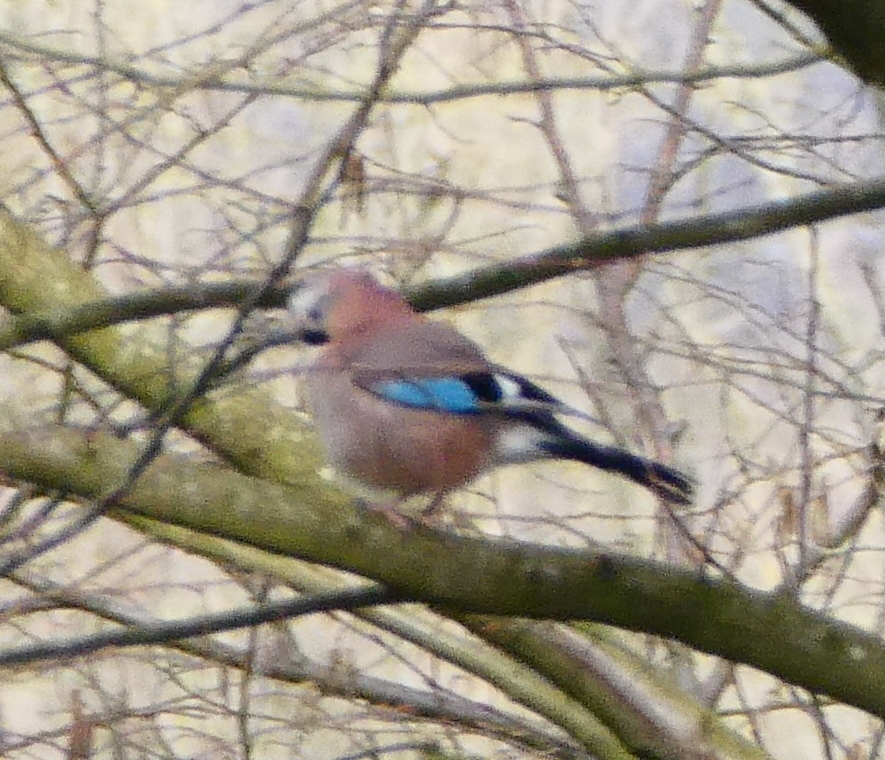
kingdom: Animalia
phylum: Chordata
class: Aves
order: Passeriformes
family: Corvidae
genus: Garrulus
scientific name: Garrulus glandarius
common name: Eurasian jay
